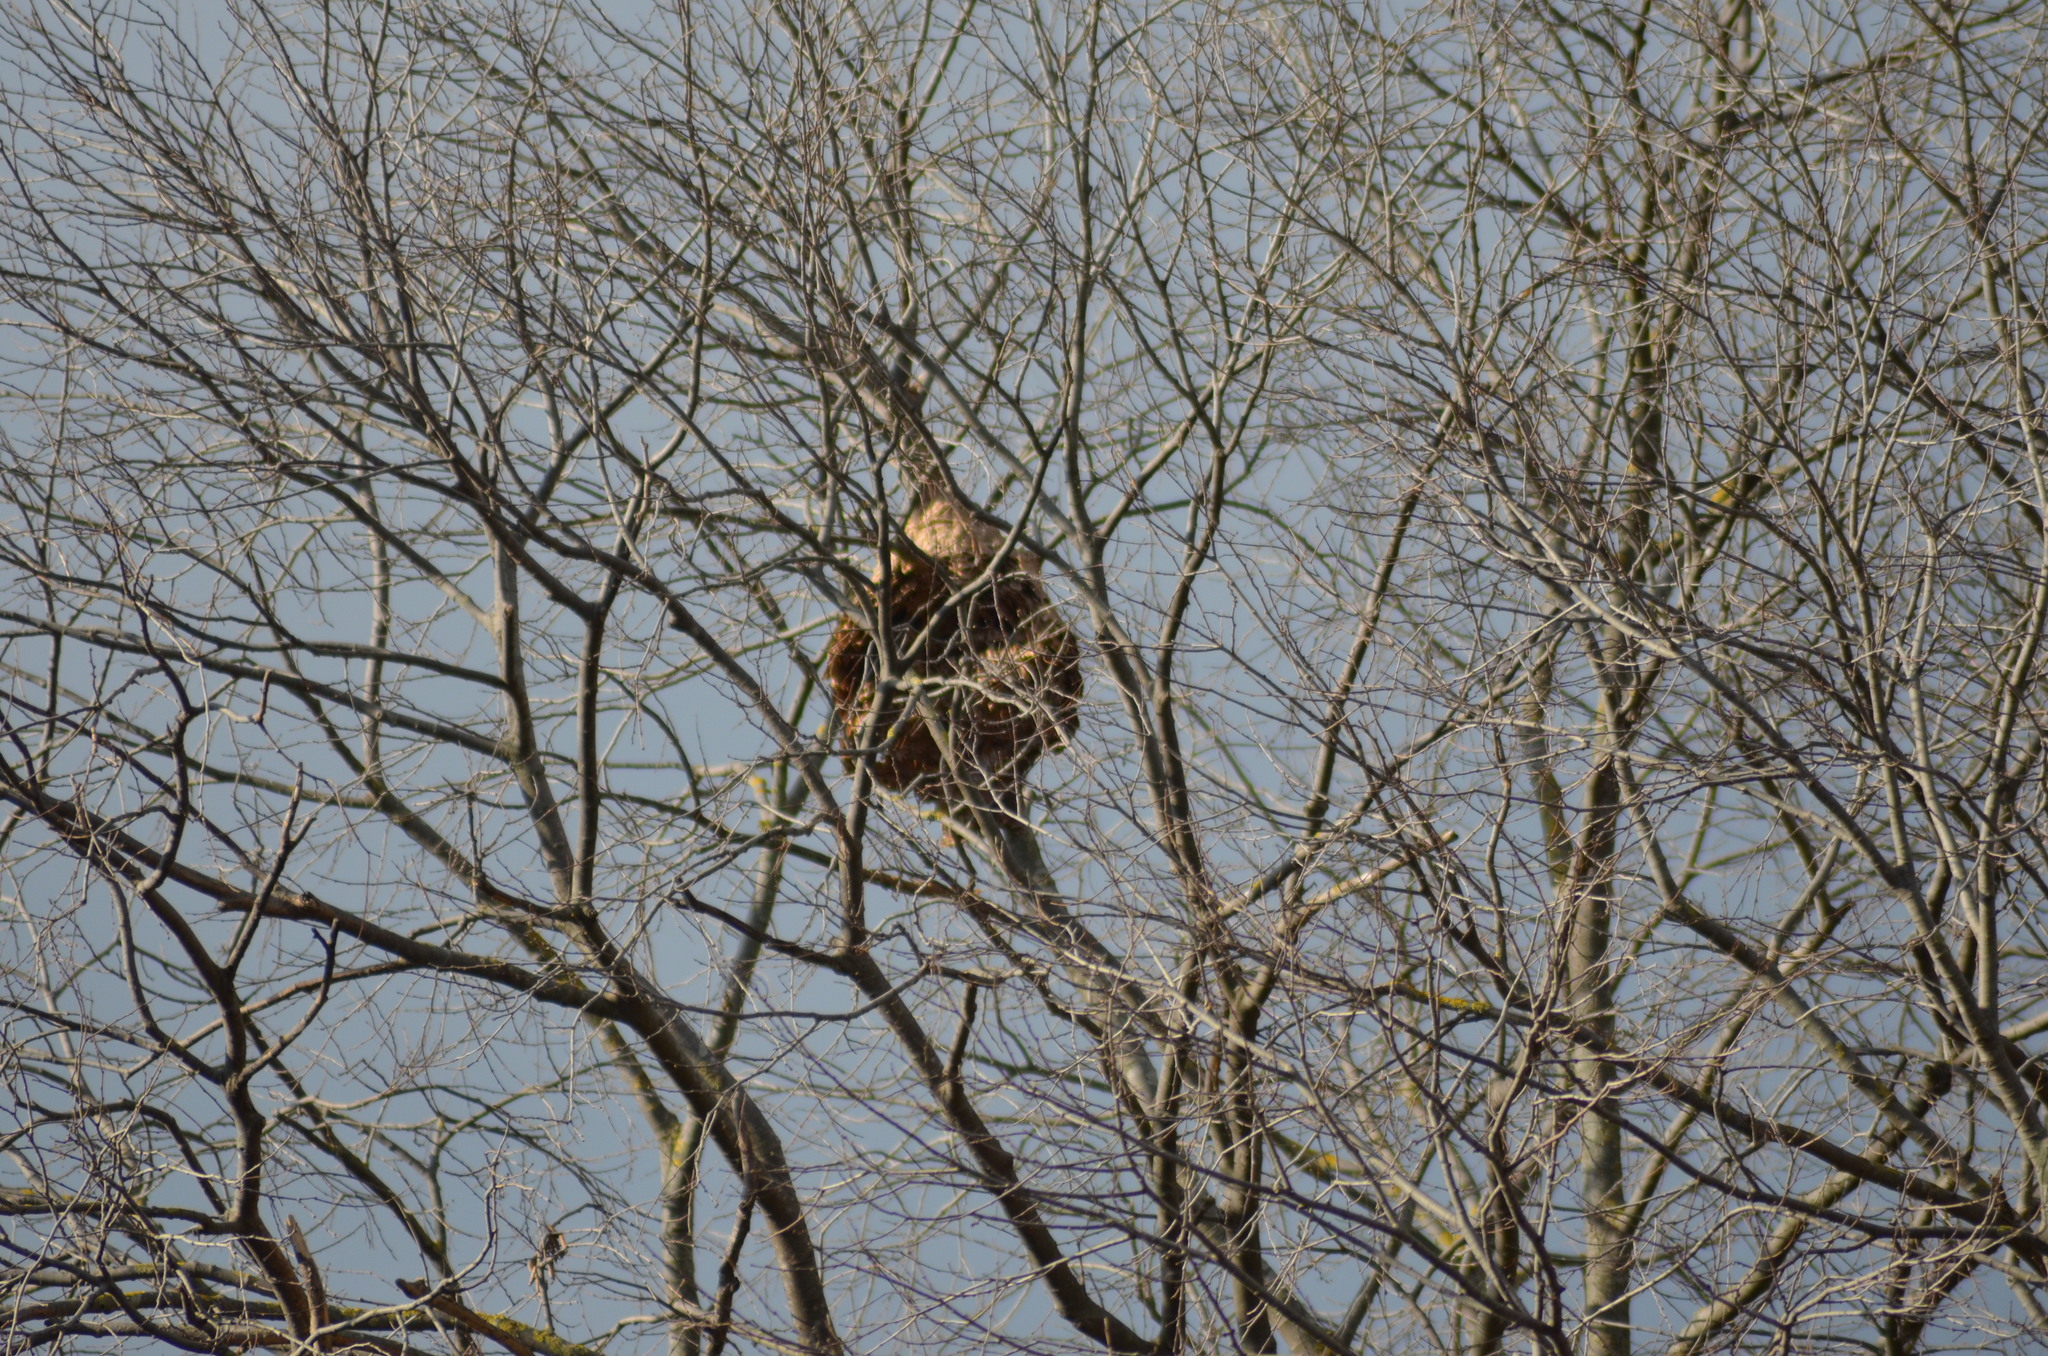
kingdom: Animalia
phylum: Arthropoda
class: Insecta
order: Hymenoptera
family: Vespidae
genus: Vespa
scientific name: Vespa velutina
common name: Asian hornet
